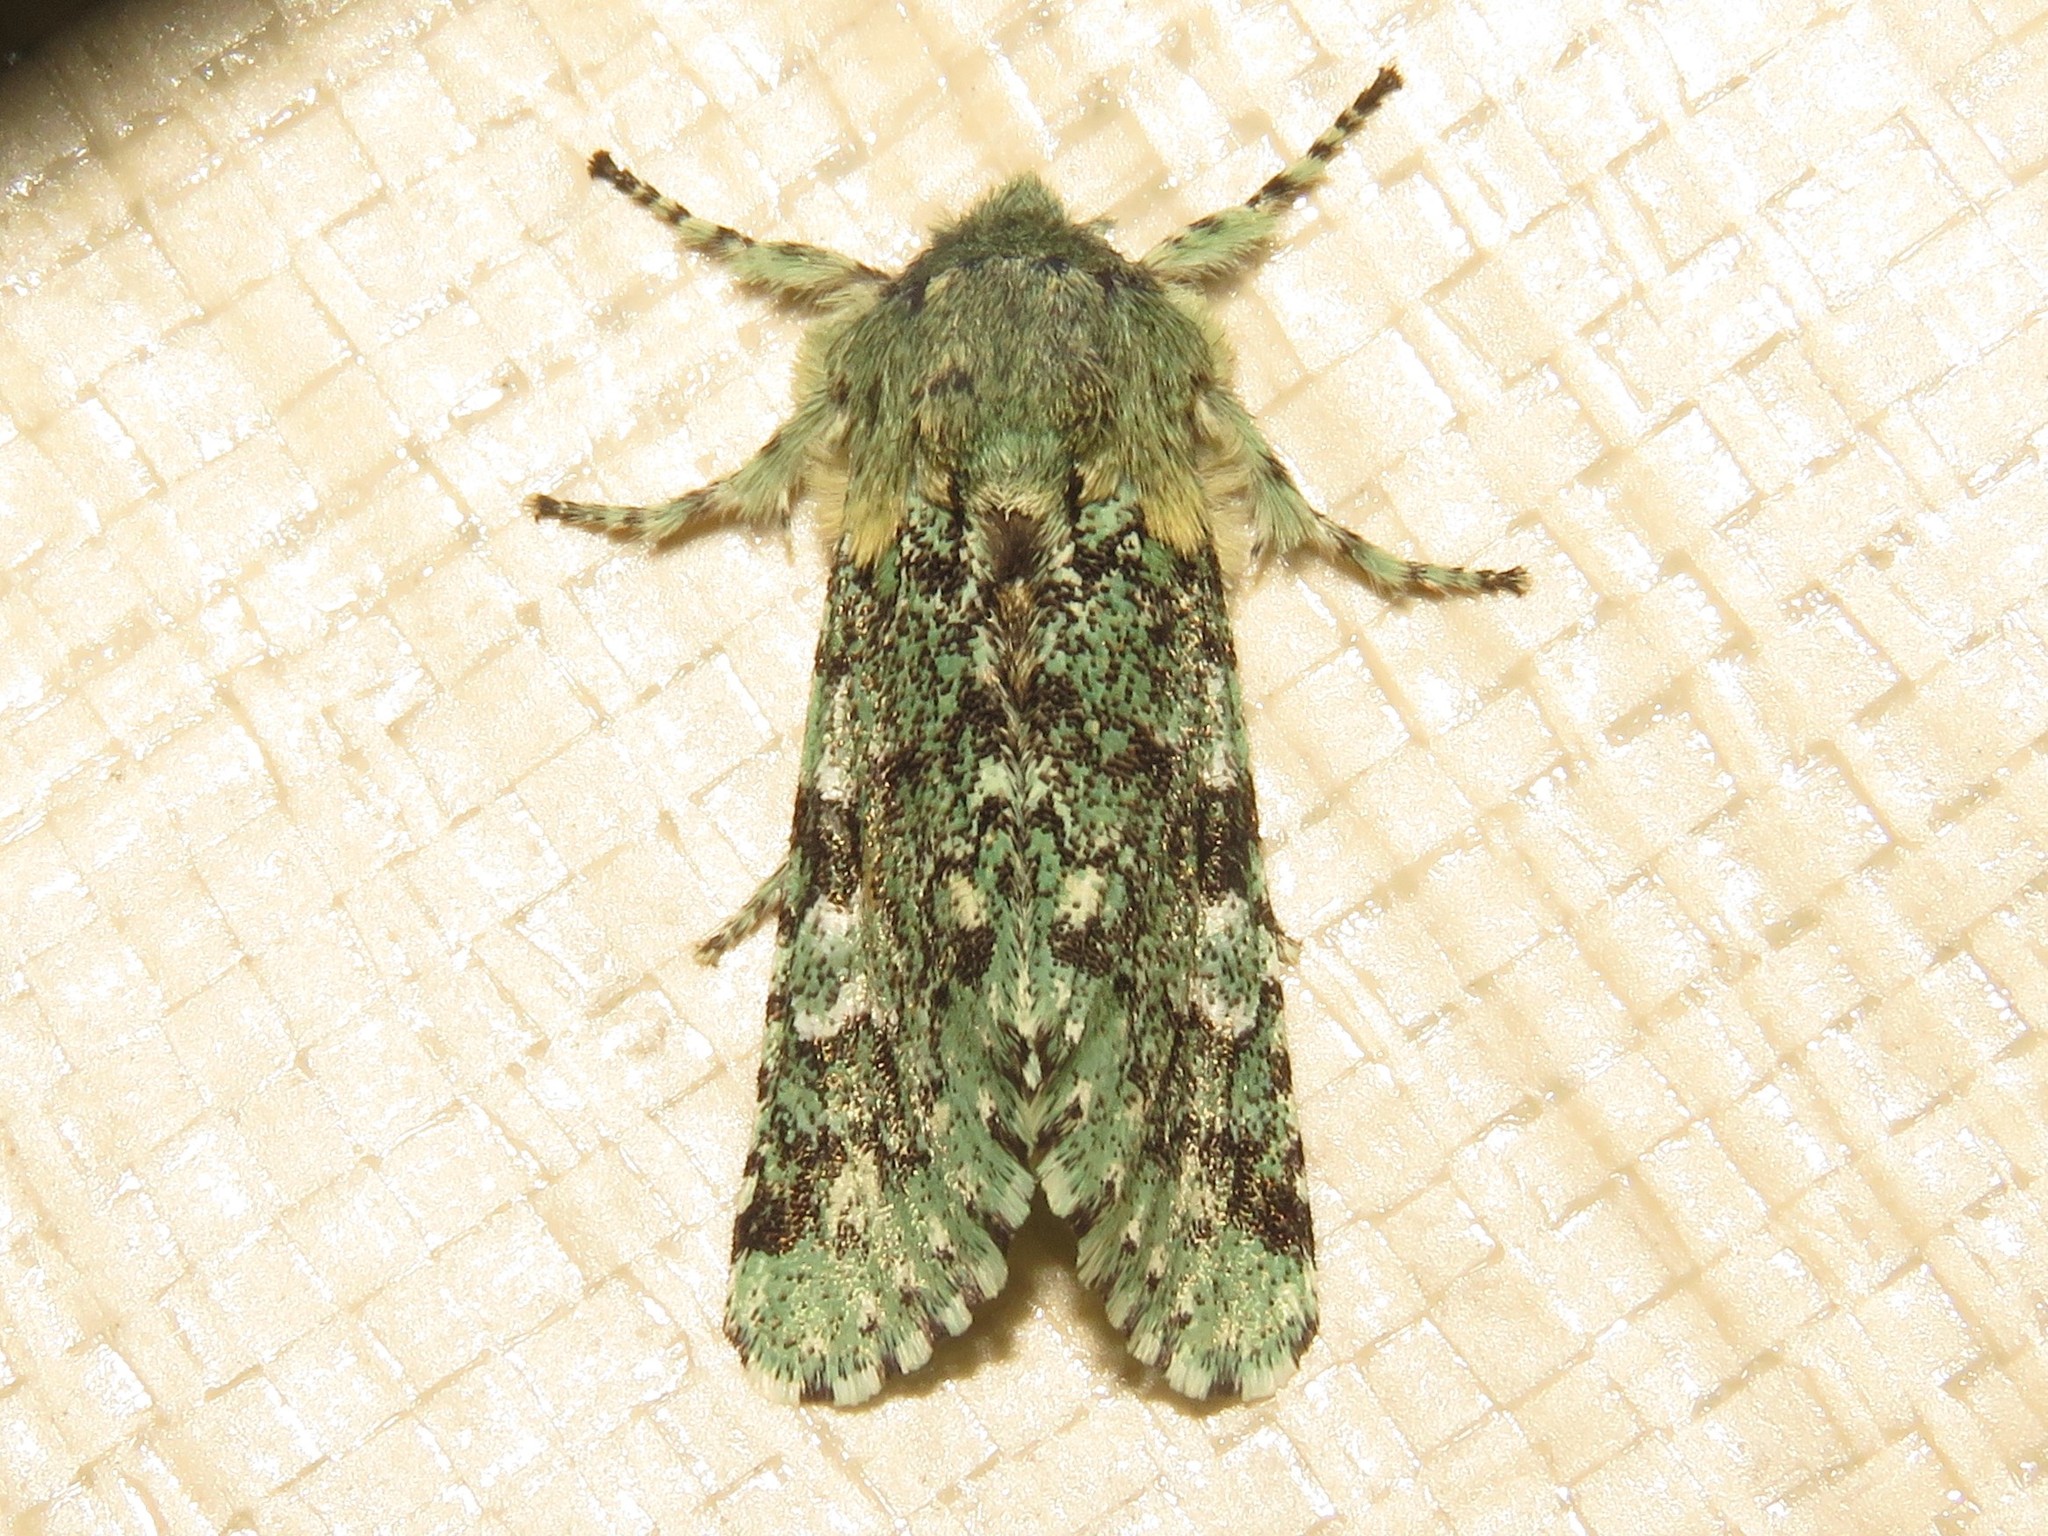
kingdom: Animalia
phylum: Arthropoda
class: Insecta
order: Lepidoptera
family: Noctuidae
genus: Feralia
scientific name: Feralia major
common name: Major sallow
